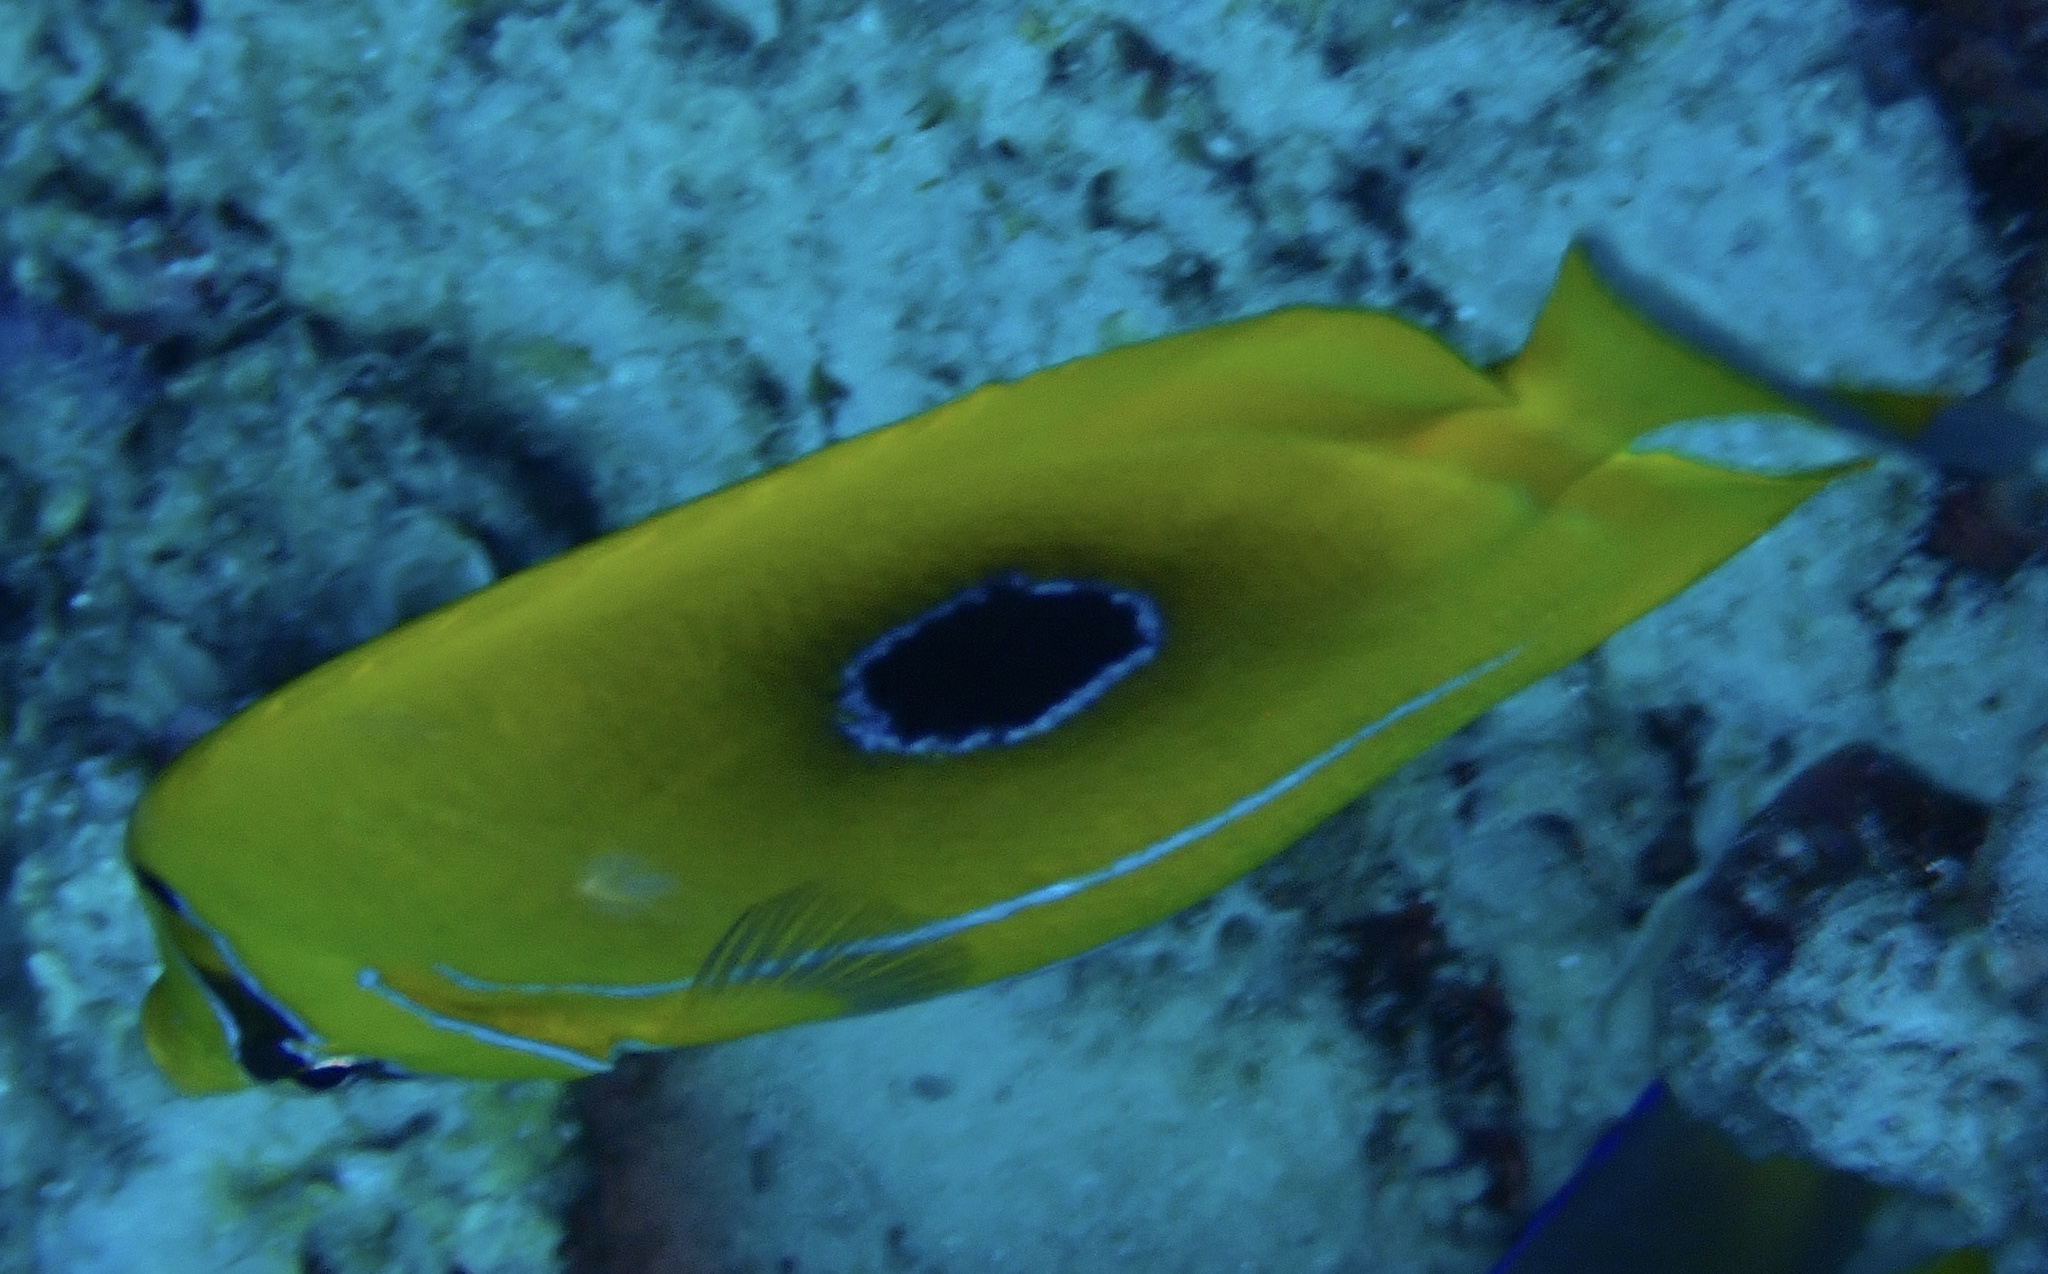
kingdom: Animalia
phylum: Chordata
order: Perciformes
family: Chaetodontidae
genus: Chaetodon
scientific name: Chaetodon bennetti
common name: Bennett's butterflyfish
